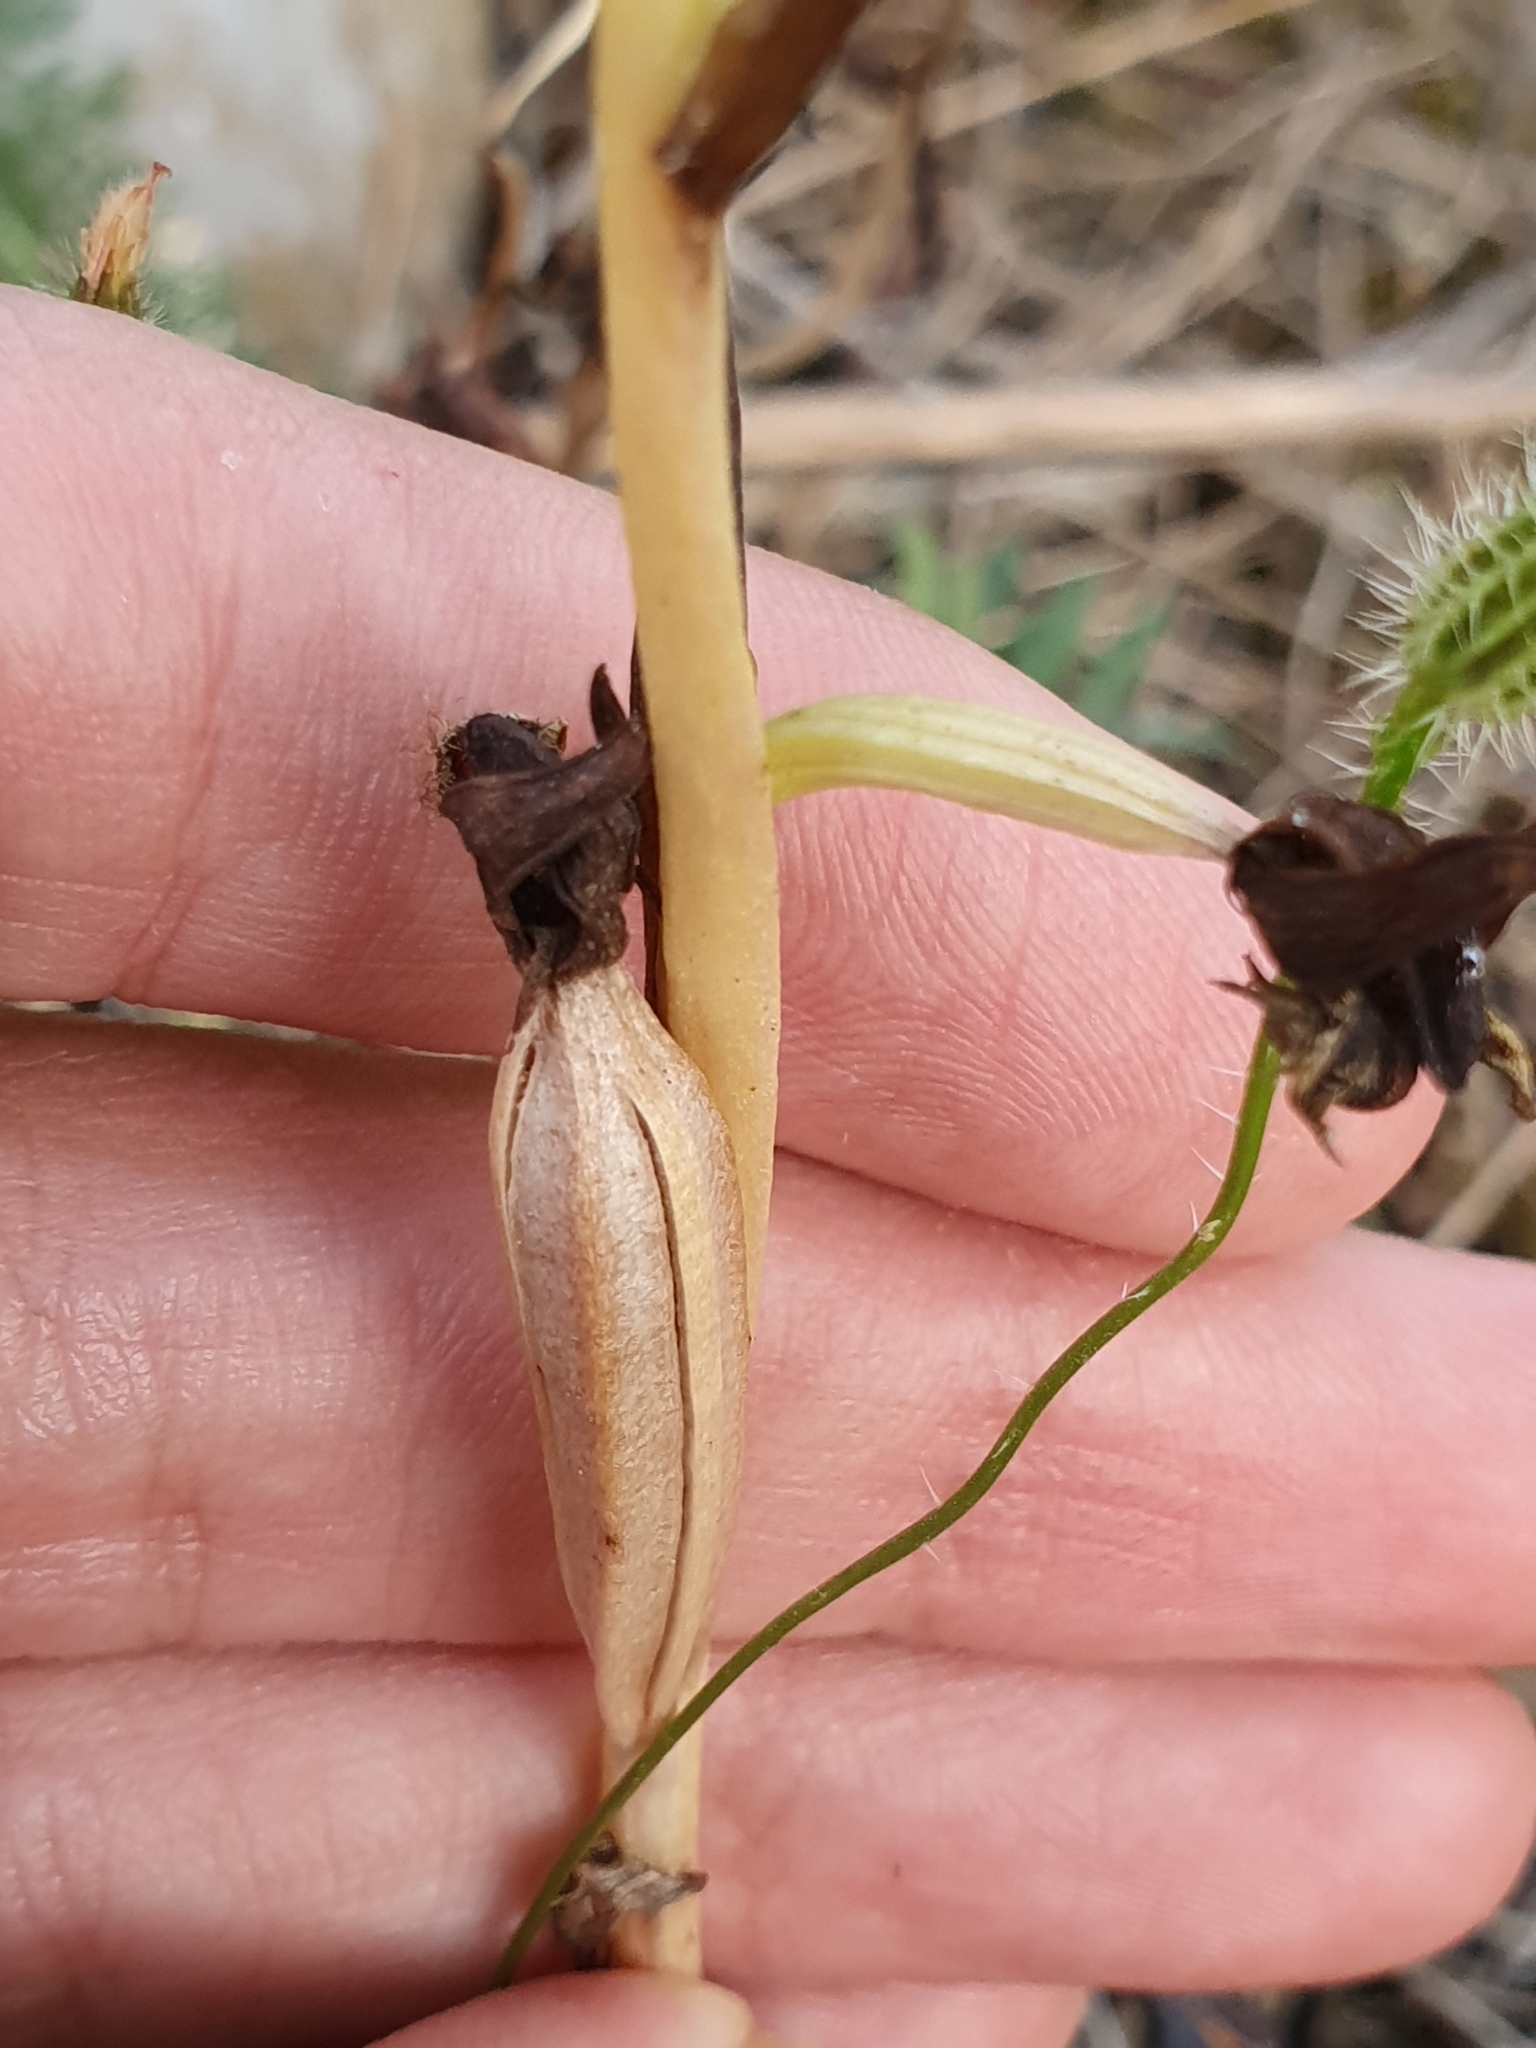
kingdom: Plantae
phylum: Tracheophyta
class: Liliopsida
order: Asparagales
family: Orchidaceae
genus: Ophrys
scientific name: Ophrys speculum
